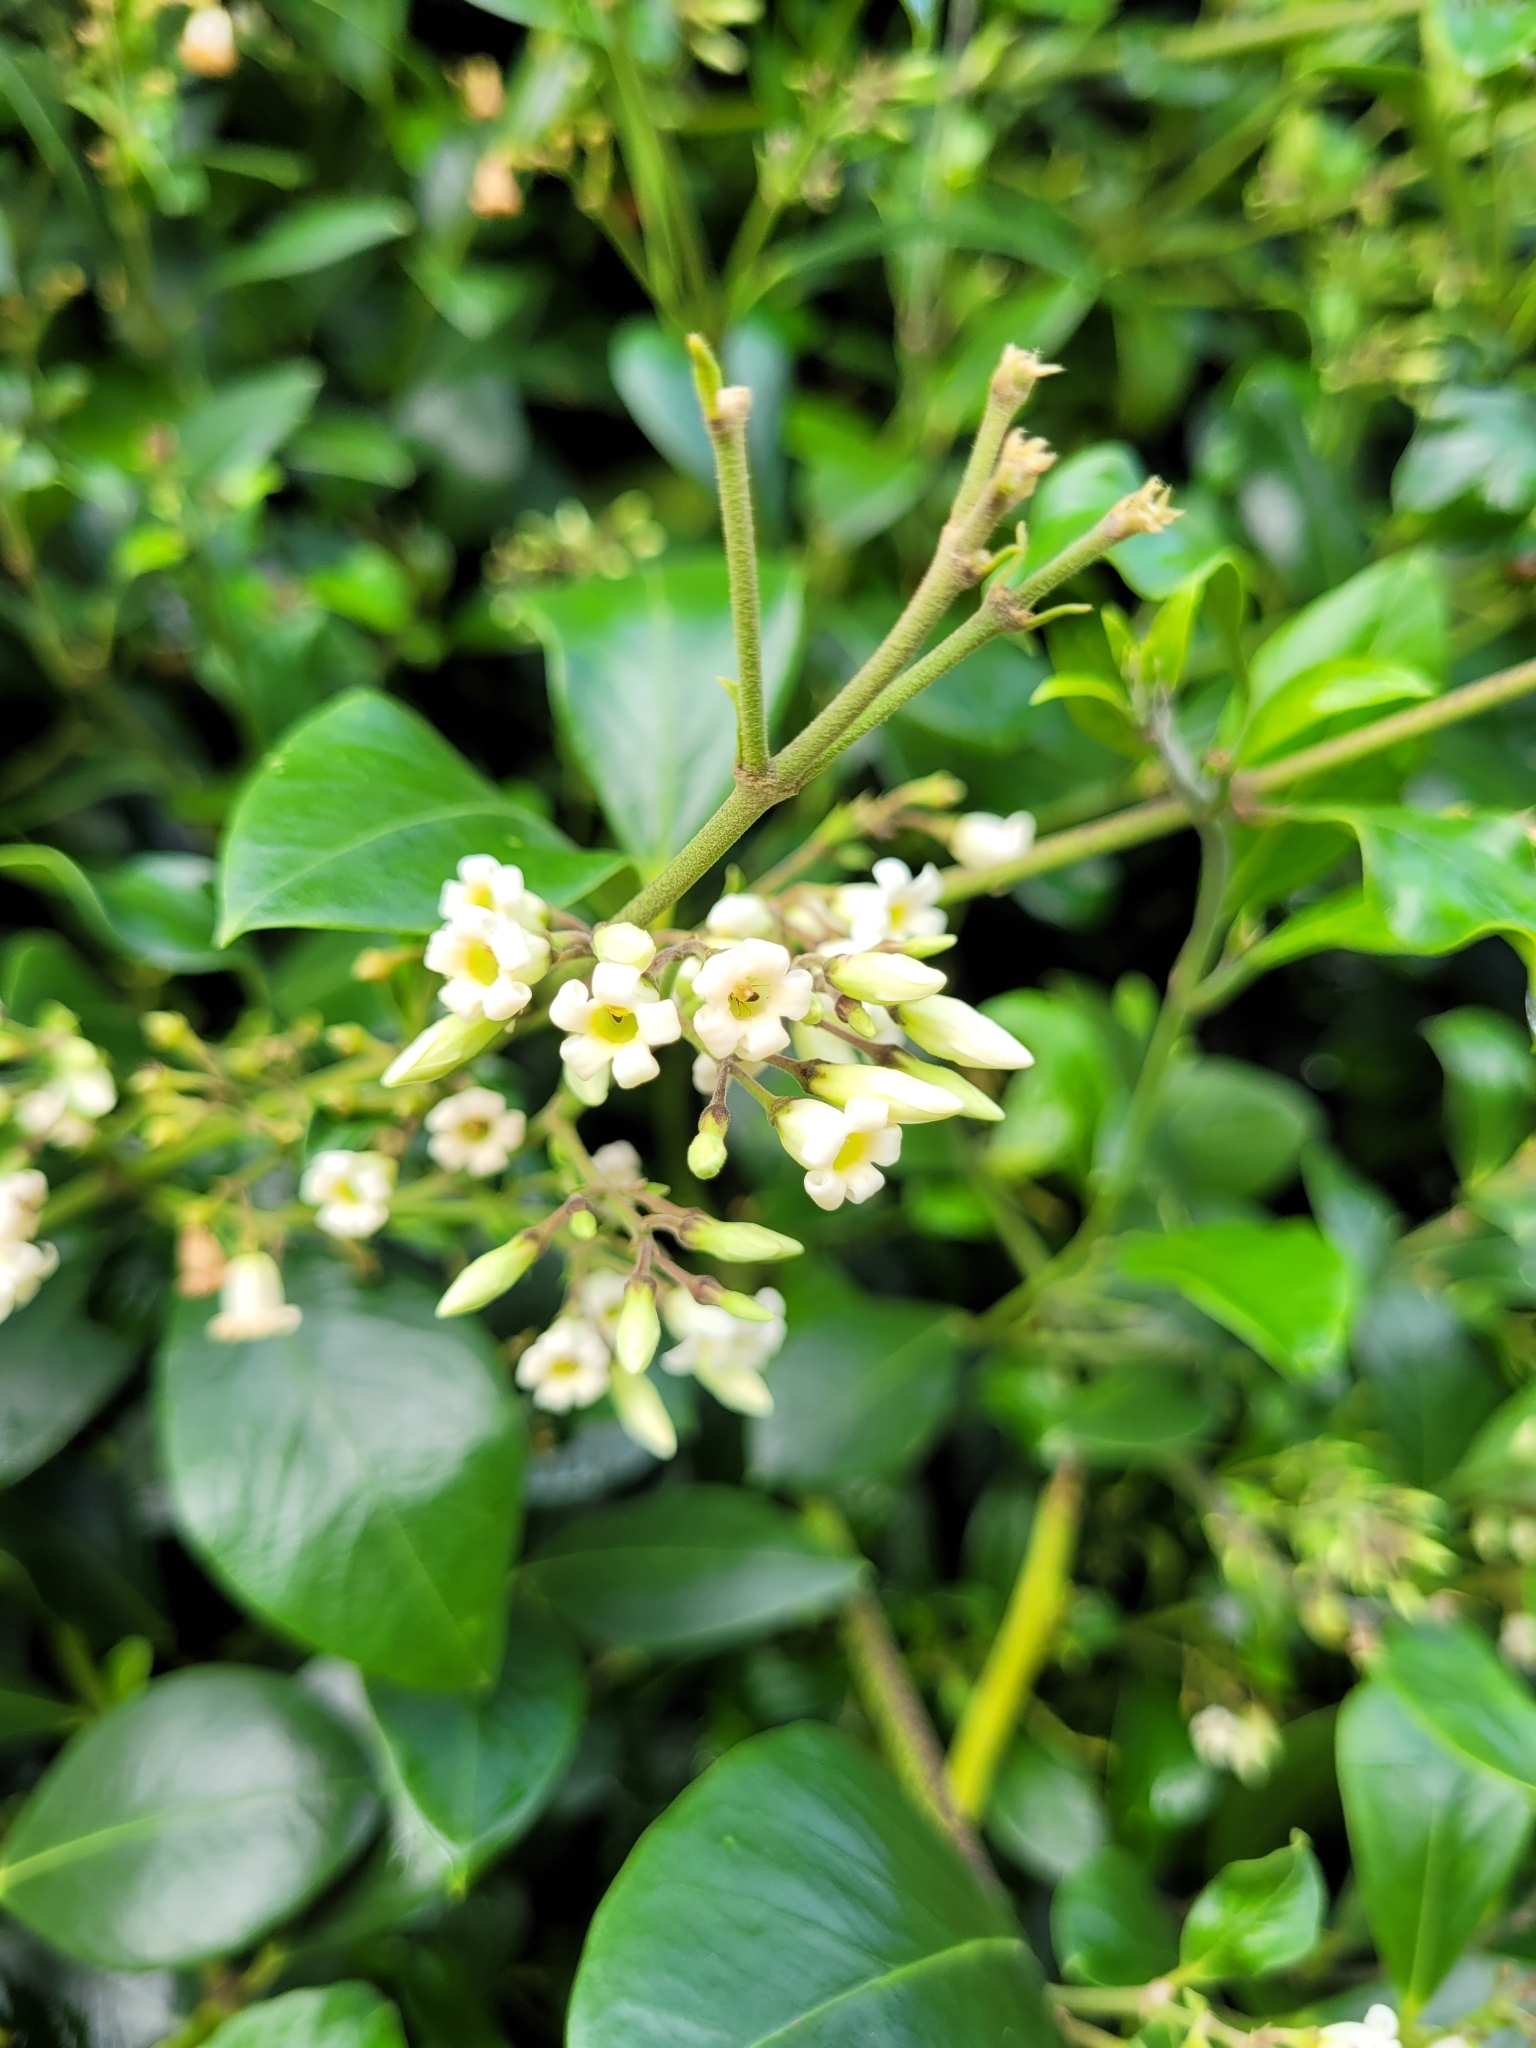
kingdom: Plantae
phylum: Tracheophyta
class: Magnoliopsida
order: Gentianales
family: Apocynaceae
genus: Parsonsia
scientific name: Parsonsia heterophylla
